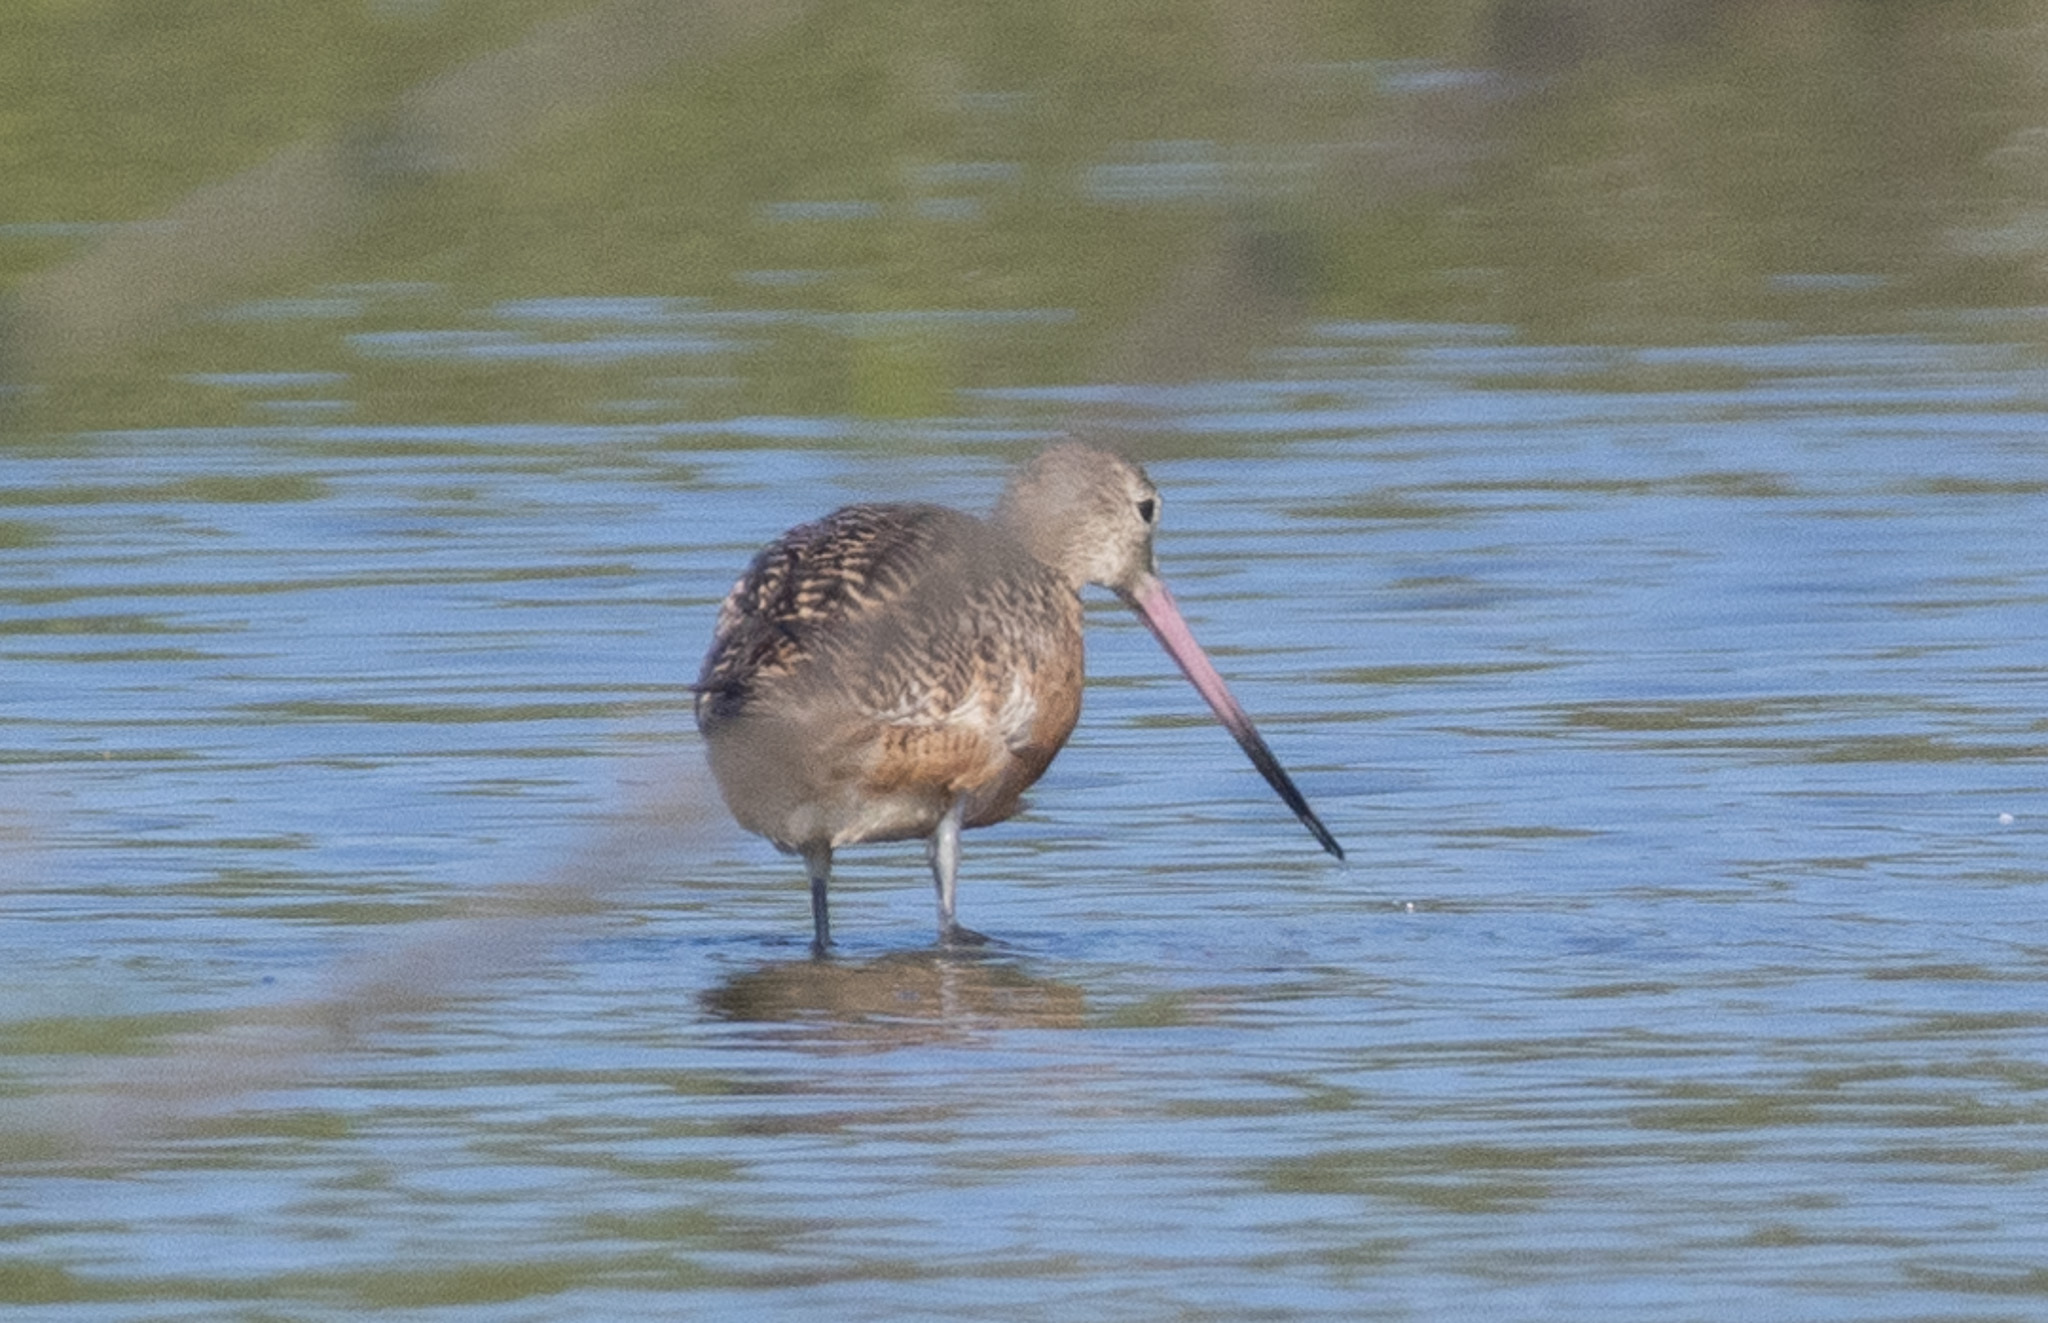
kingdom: Animalia
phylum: Chordata
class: Aves
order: Charadriiformes
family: Scolopacidae
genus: Limosa
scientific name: Limosa fedoa
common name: Marbled godwit
